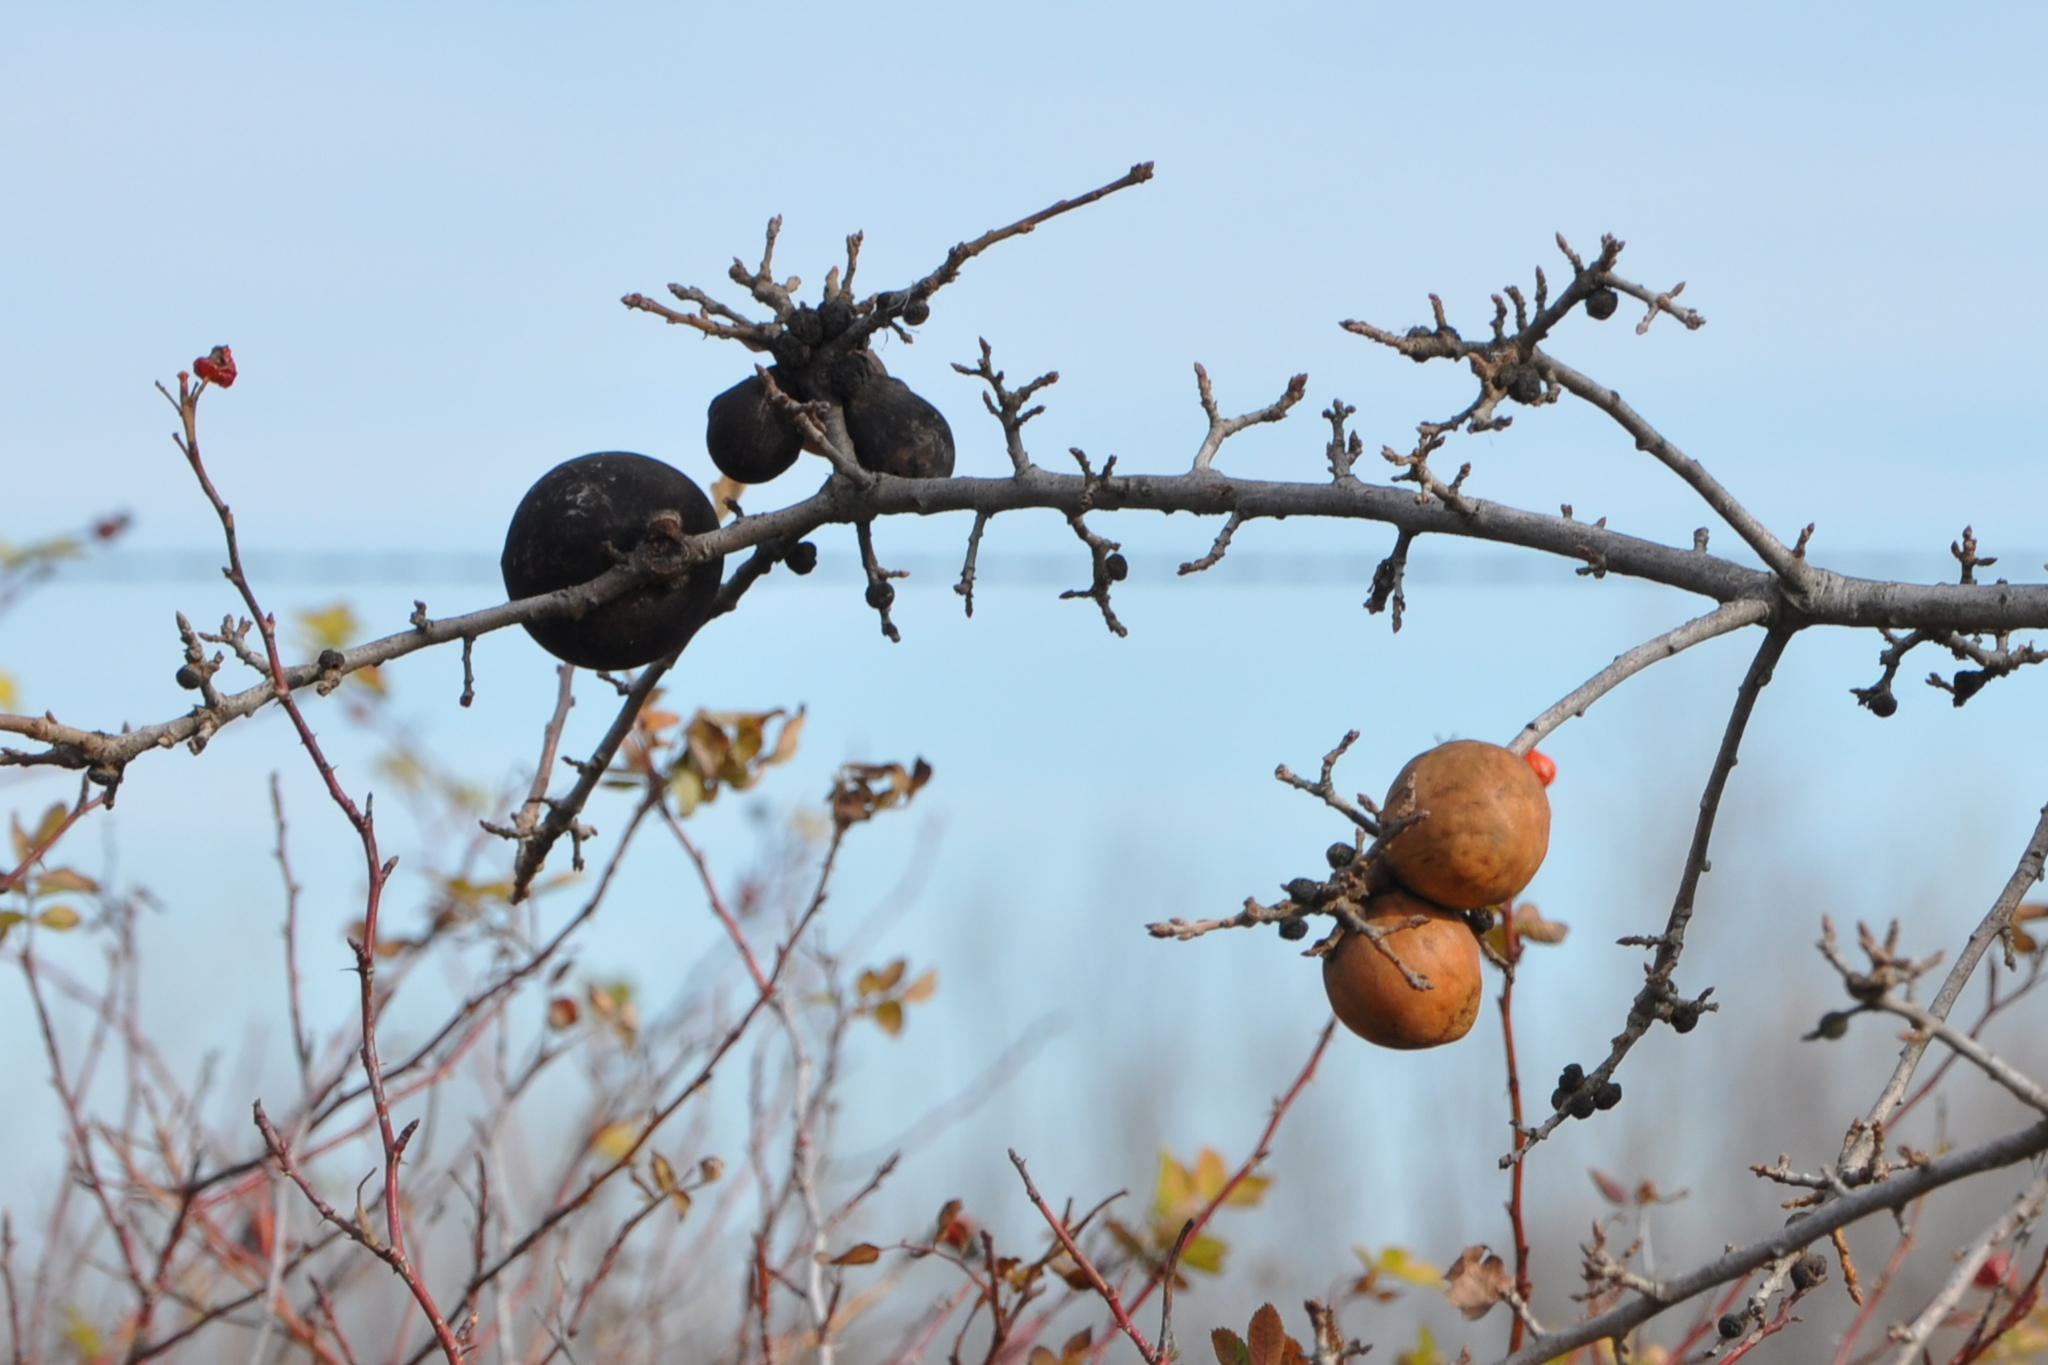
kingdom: Animalia
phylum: Arthropoda
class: Insecta
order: Hymenoptera
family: Cynipidae
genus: Andricus
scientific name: Andricus quercuscalifornicus
